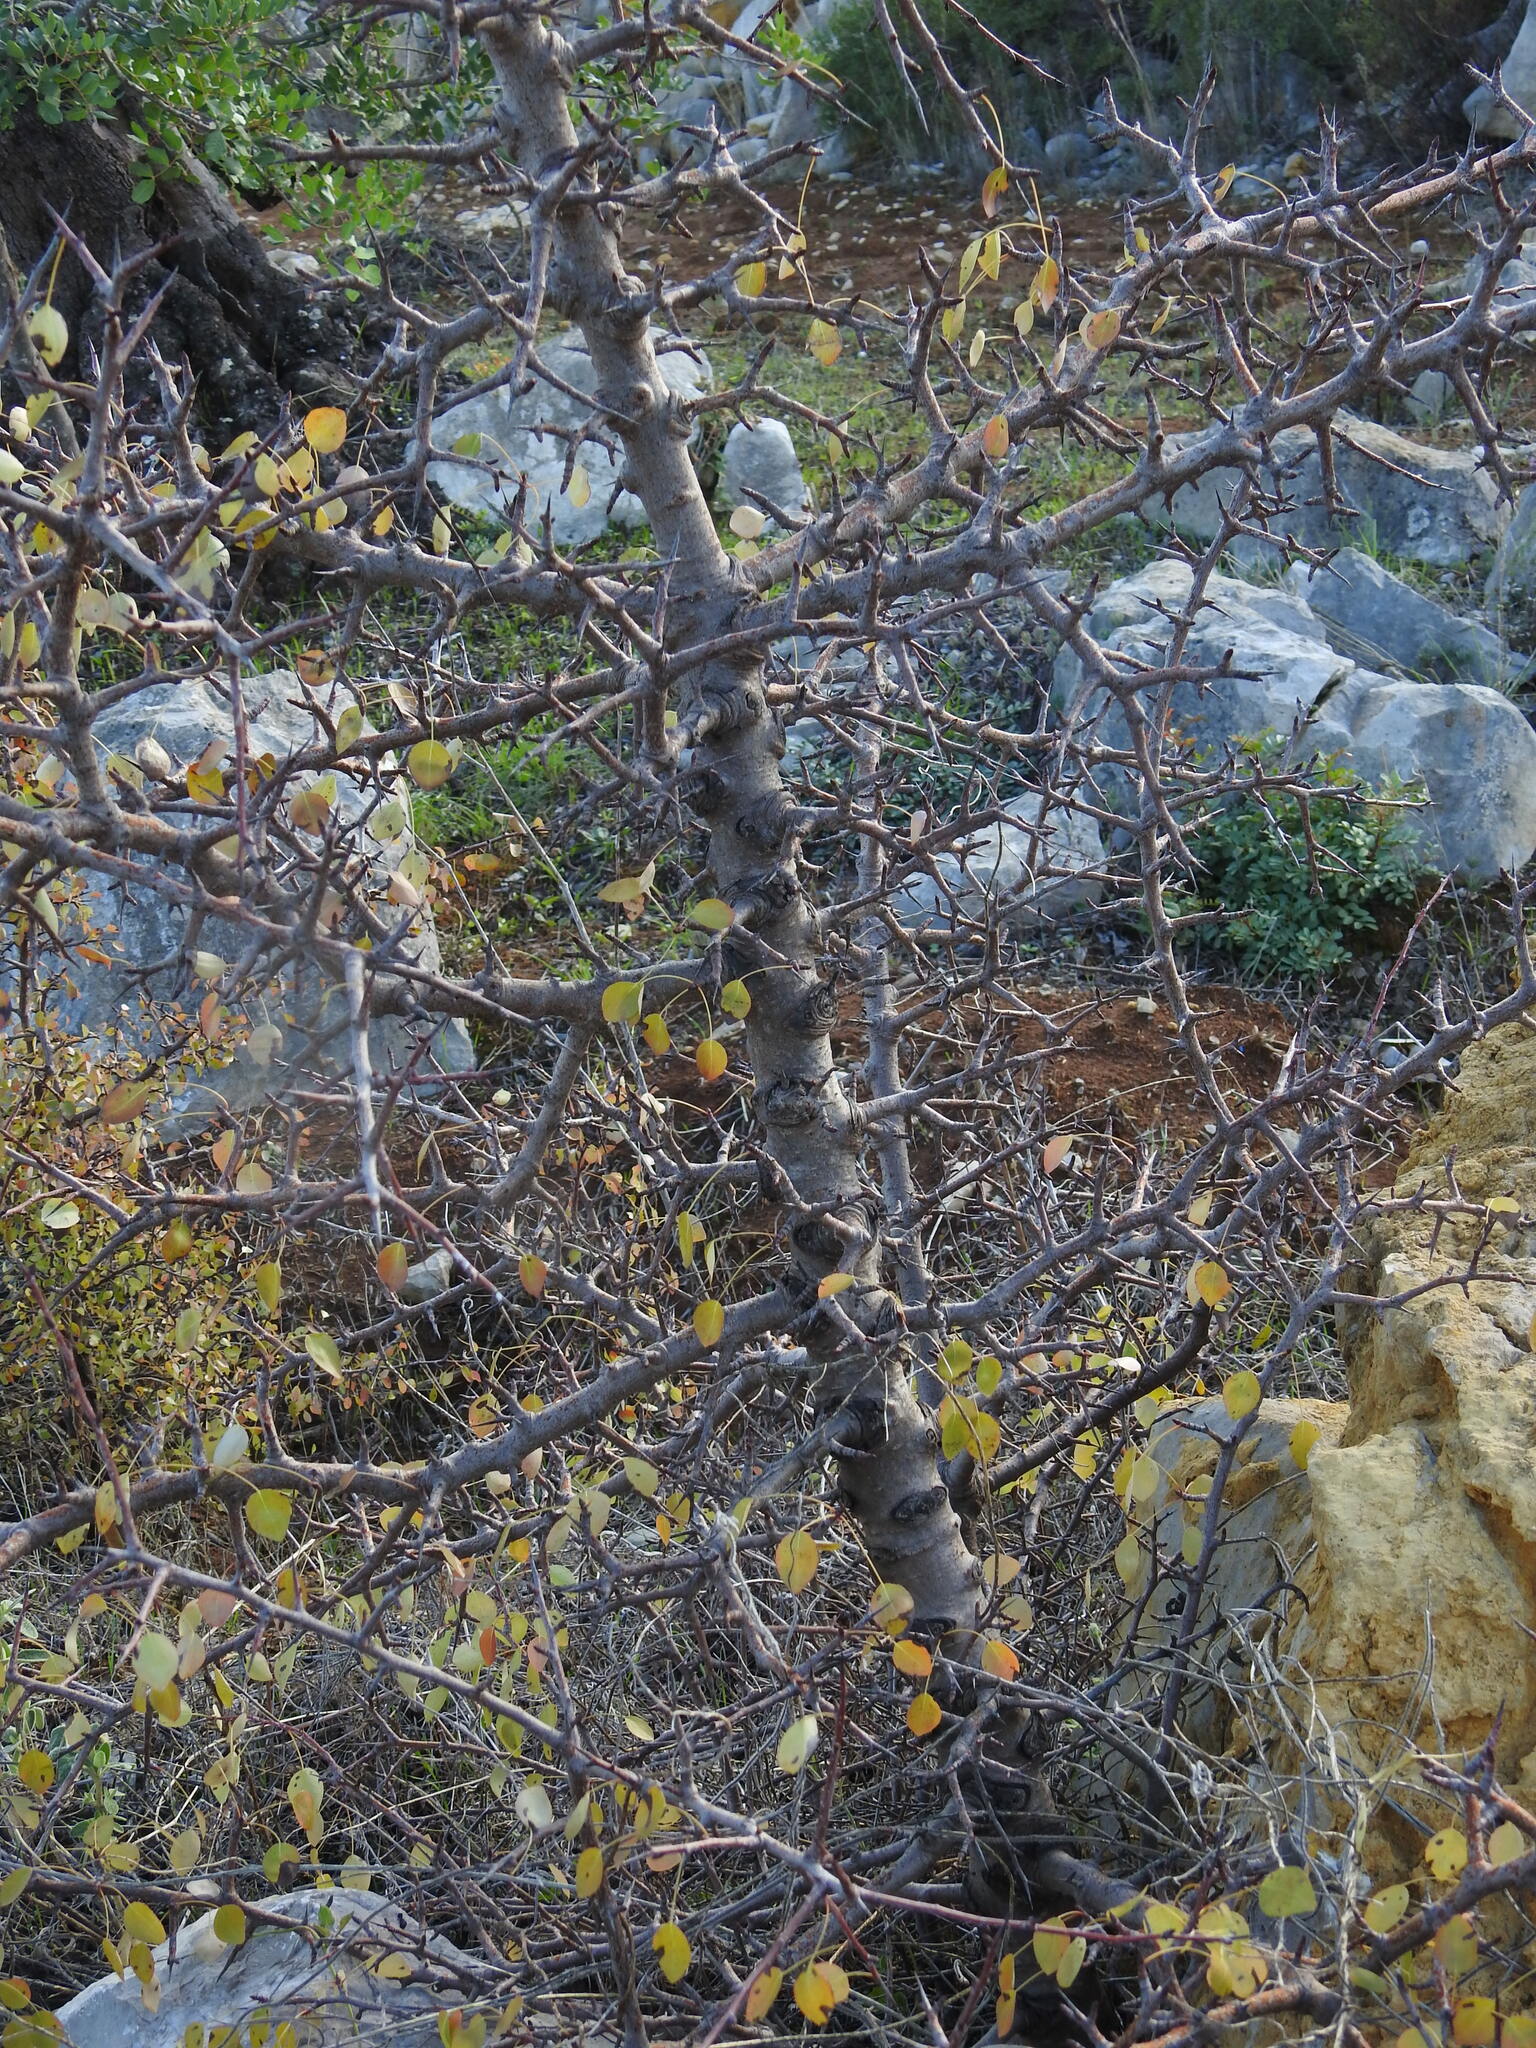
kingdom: Plantae
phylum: Tracheophyta
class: Magnoliopsida
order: Rosales
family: Rosaceae
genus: Pyrus
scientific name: Pyrus bourgaeana
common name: Iberian pear
